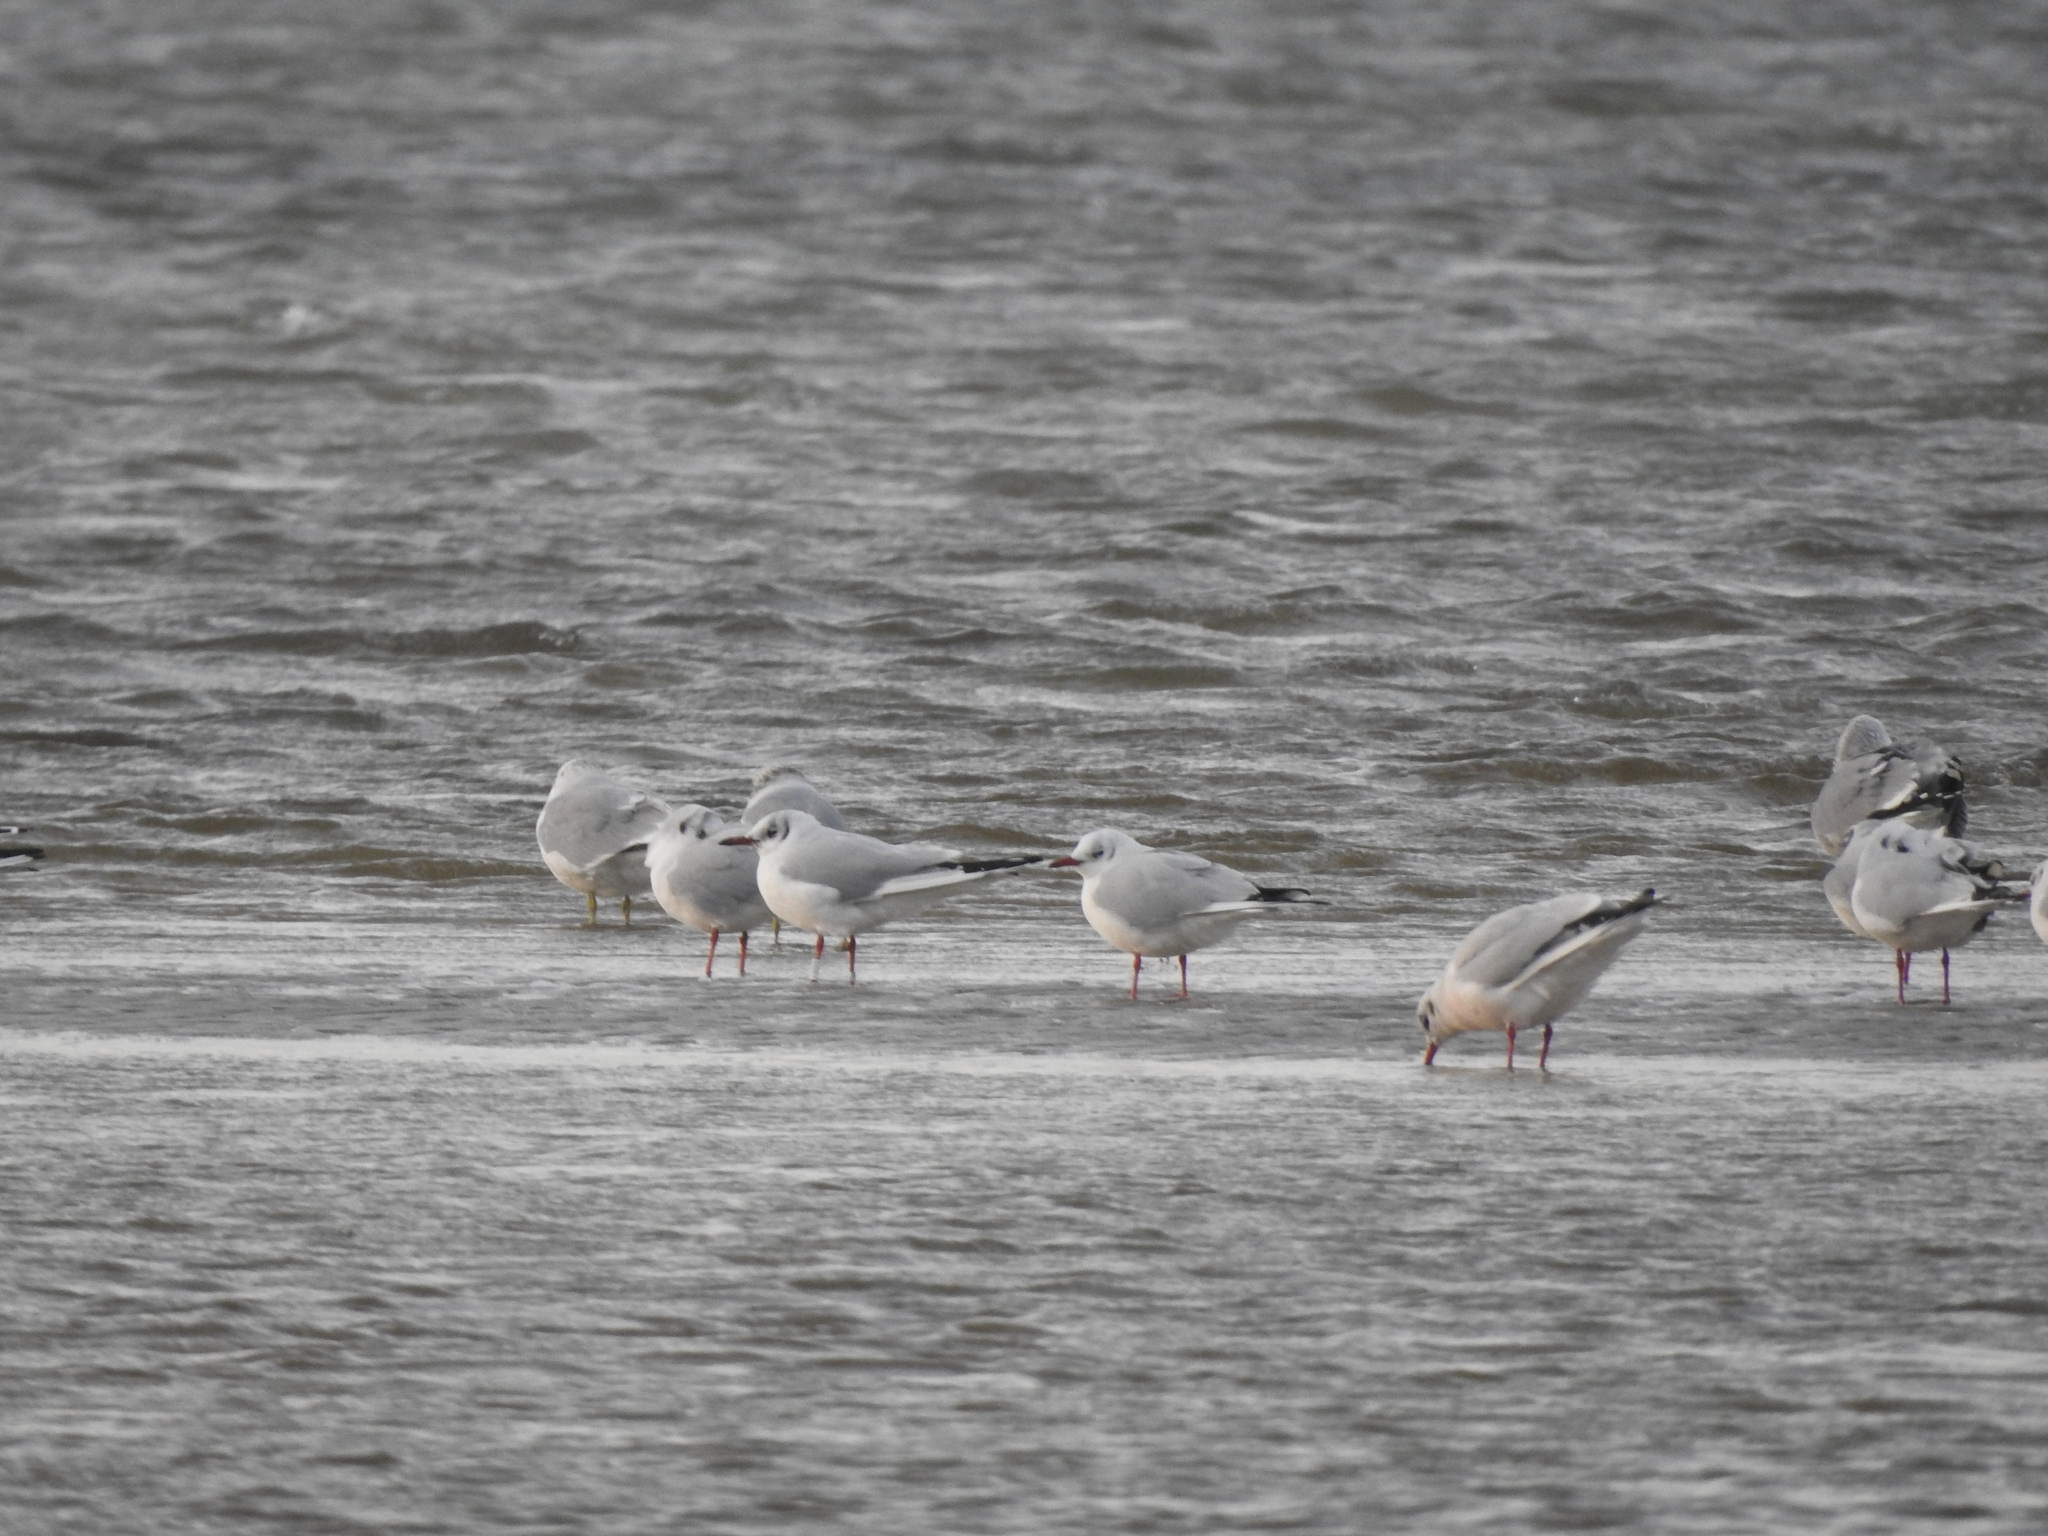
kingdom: Animalia
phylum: Chordata
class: Aves
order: Charadriiformes
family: Laridae
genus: Chroicocephalus
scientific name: Chroicocephalus ridibundus
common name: Black-headed gull
